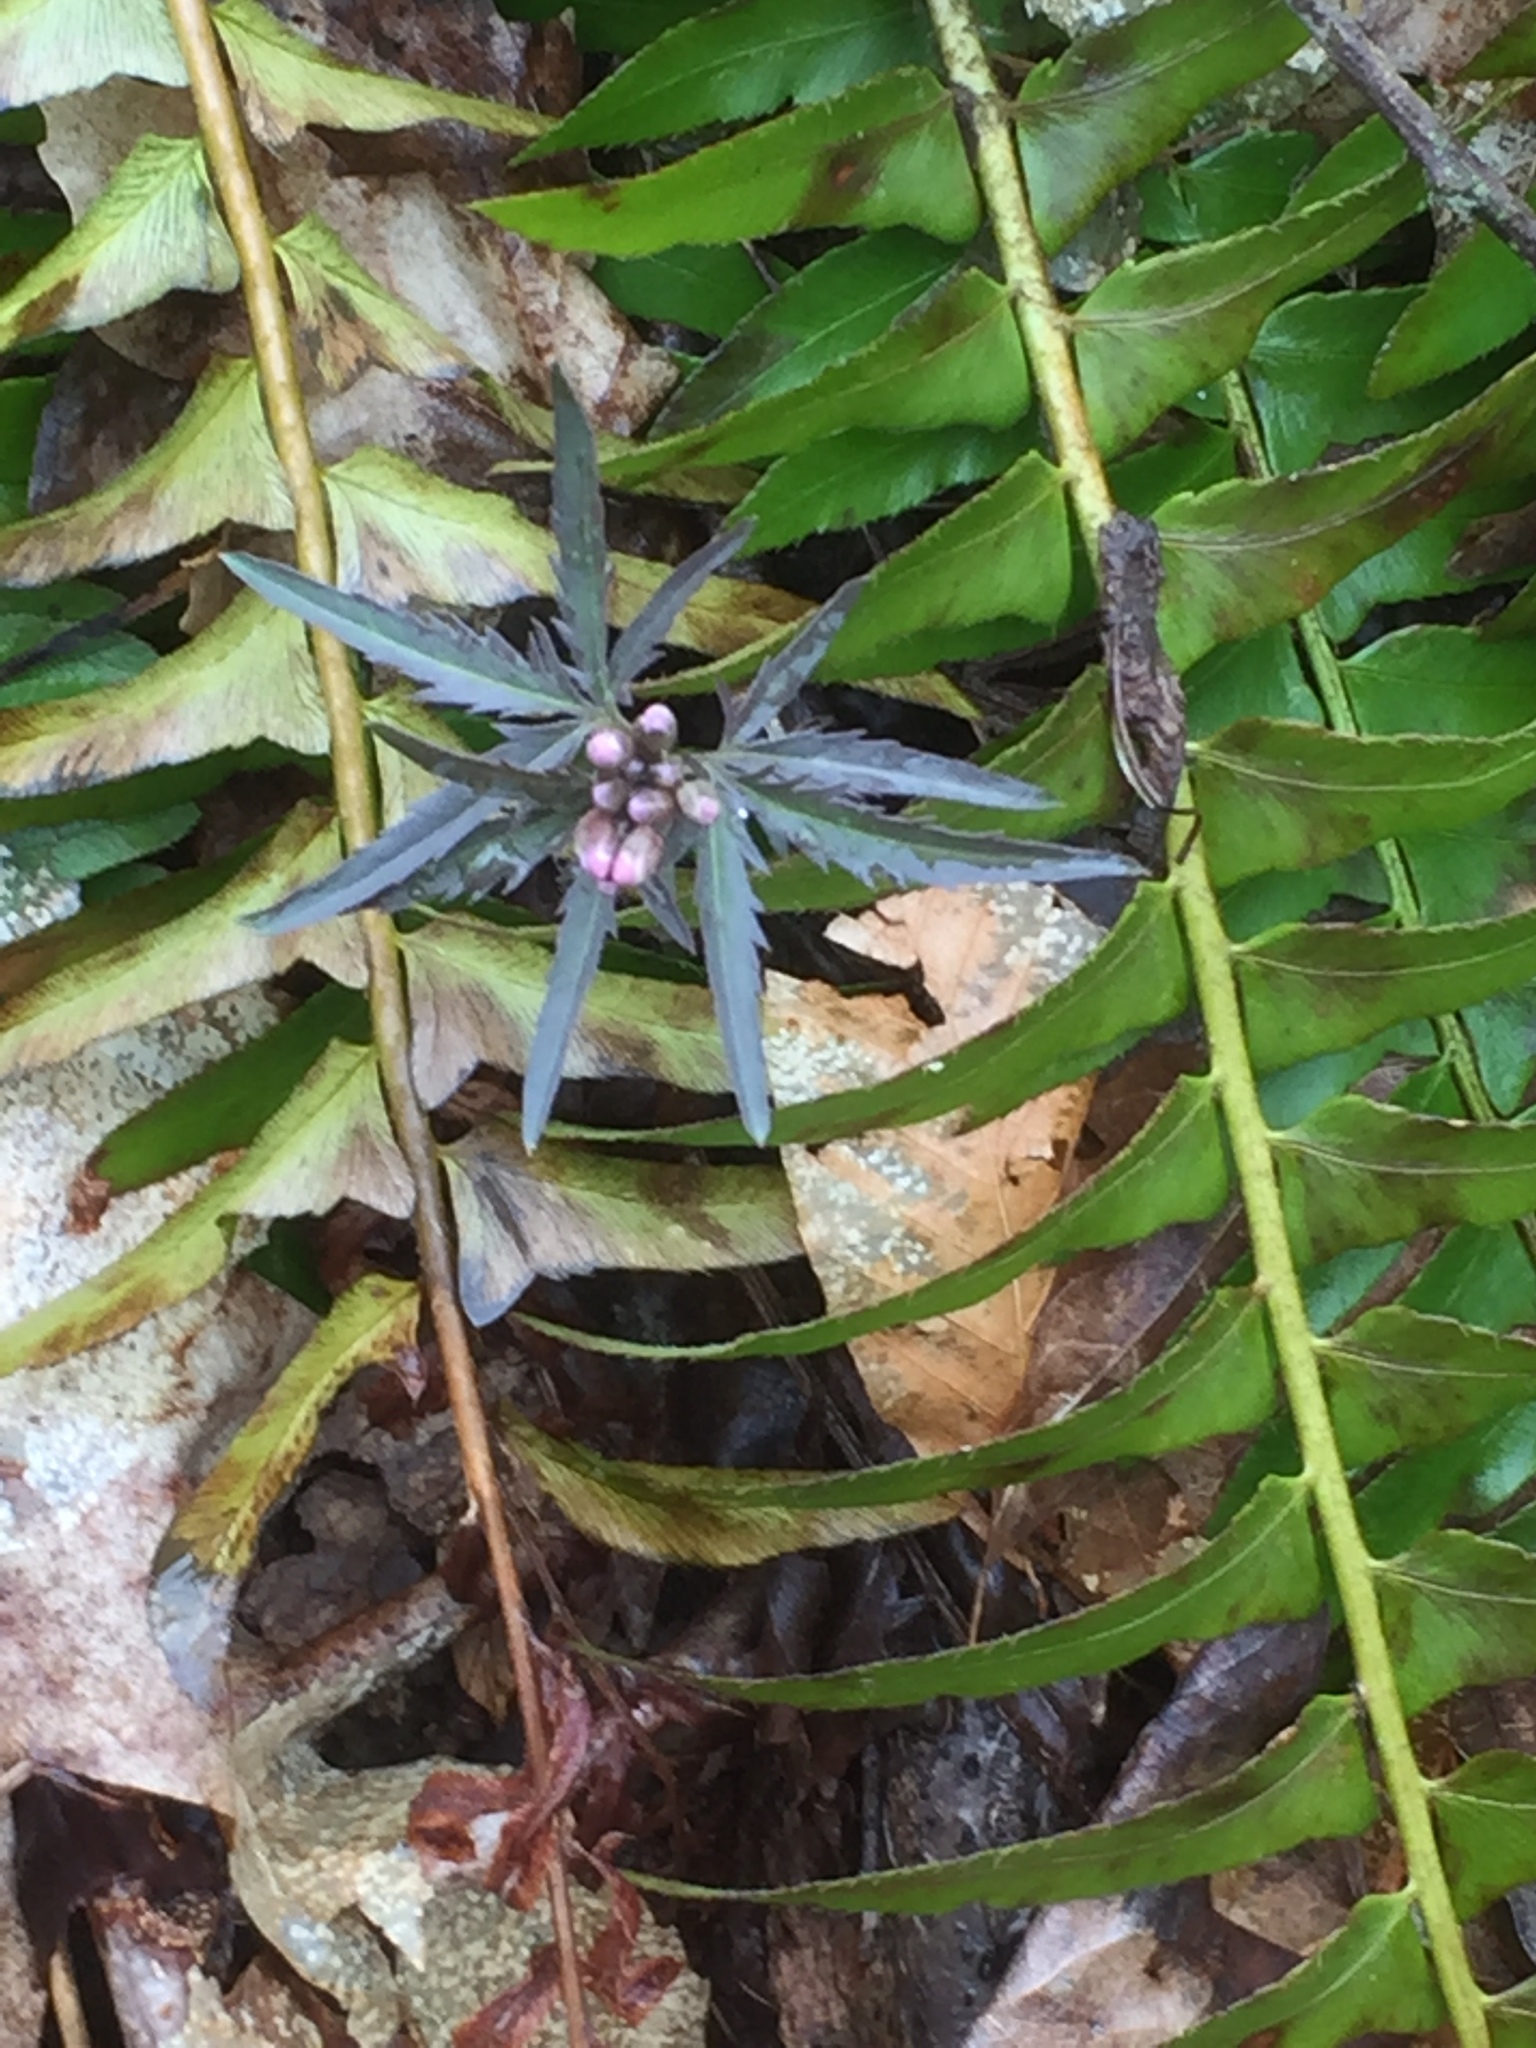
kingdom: Plantae
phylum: Tracheophyta
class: Magnoliopsida
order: Brassicales
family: Brassicaceae
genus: Cardamine
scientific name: Cardamine concatenata
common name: Cut-leaf toothcup
